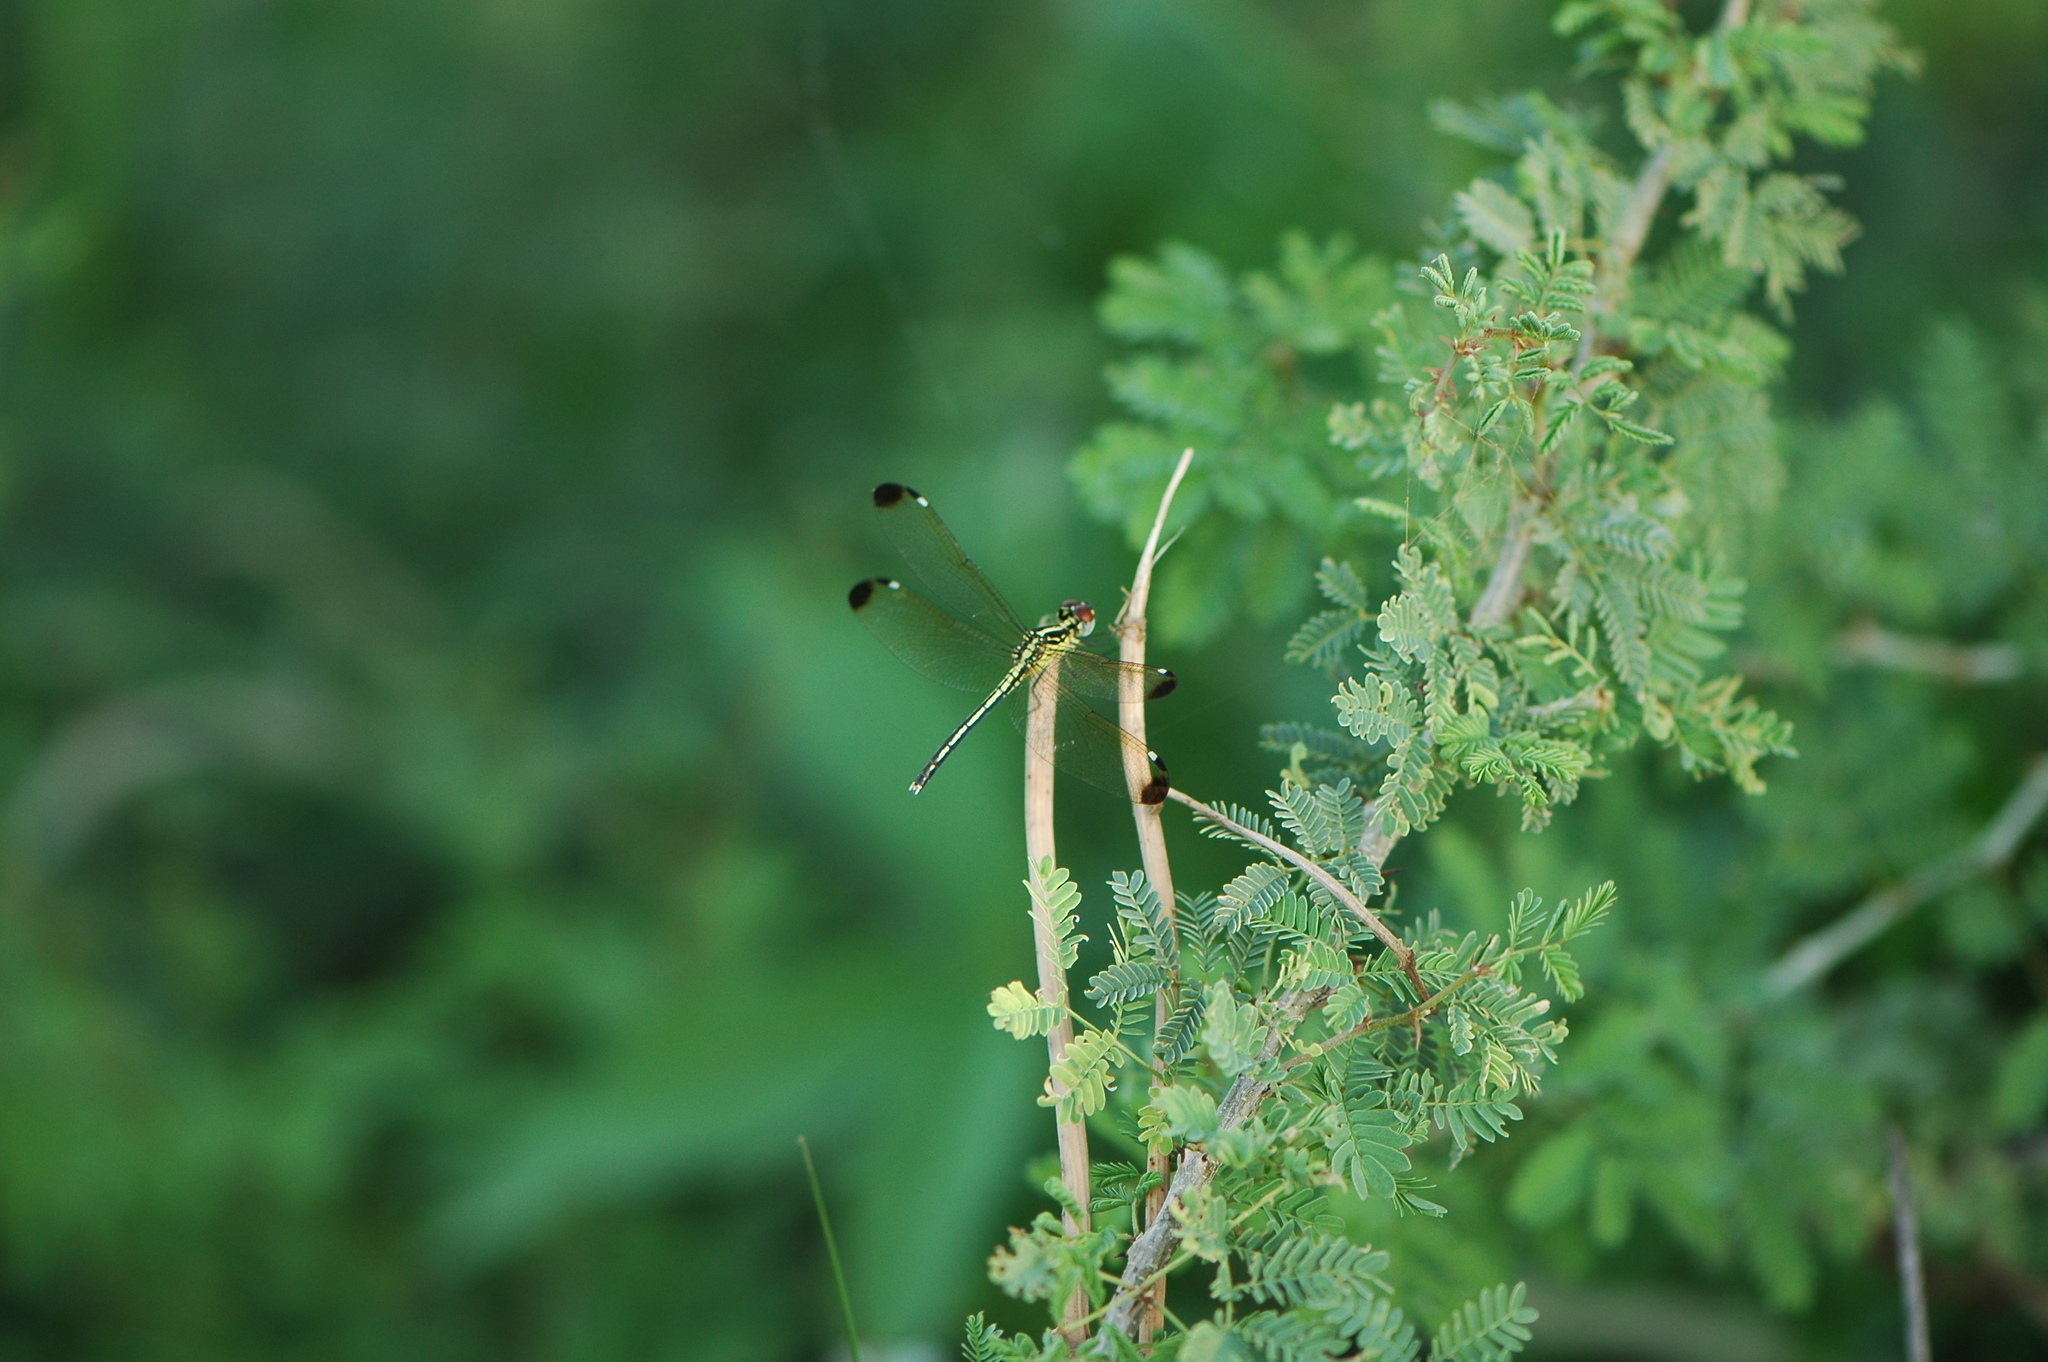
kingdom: Animalia
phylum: Arthropoda
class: Insecta
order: Odonata
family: Libellulidae
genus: Hemistigma
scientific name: Hemistigma albipunctum
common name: African pied-spot
